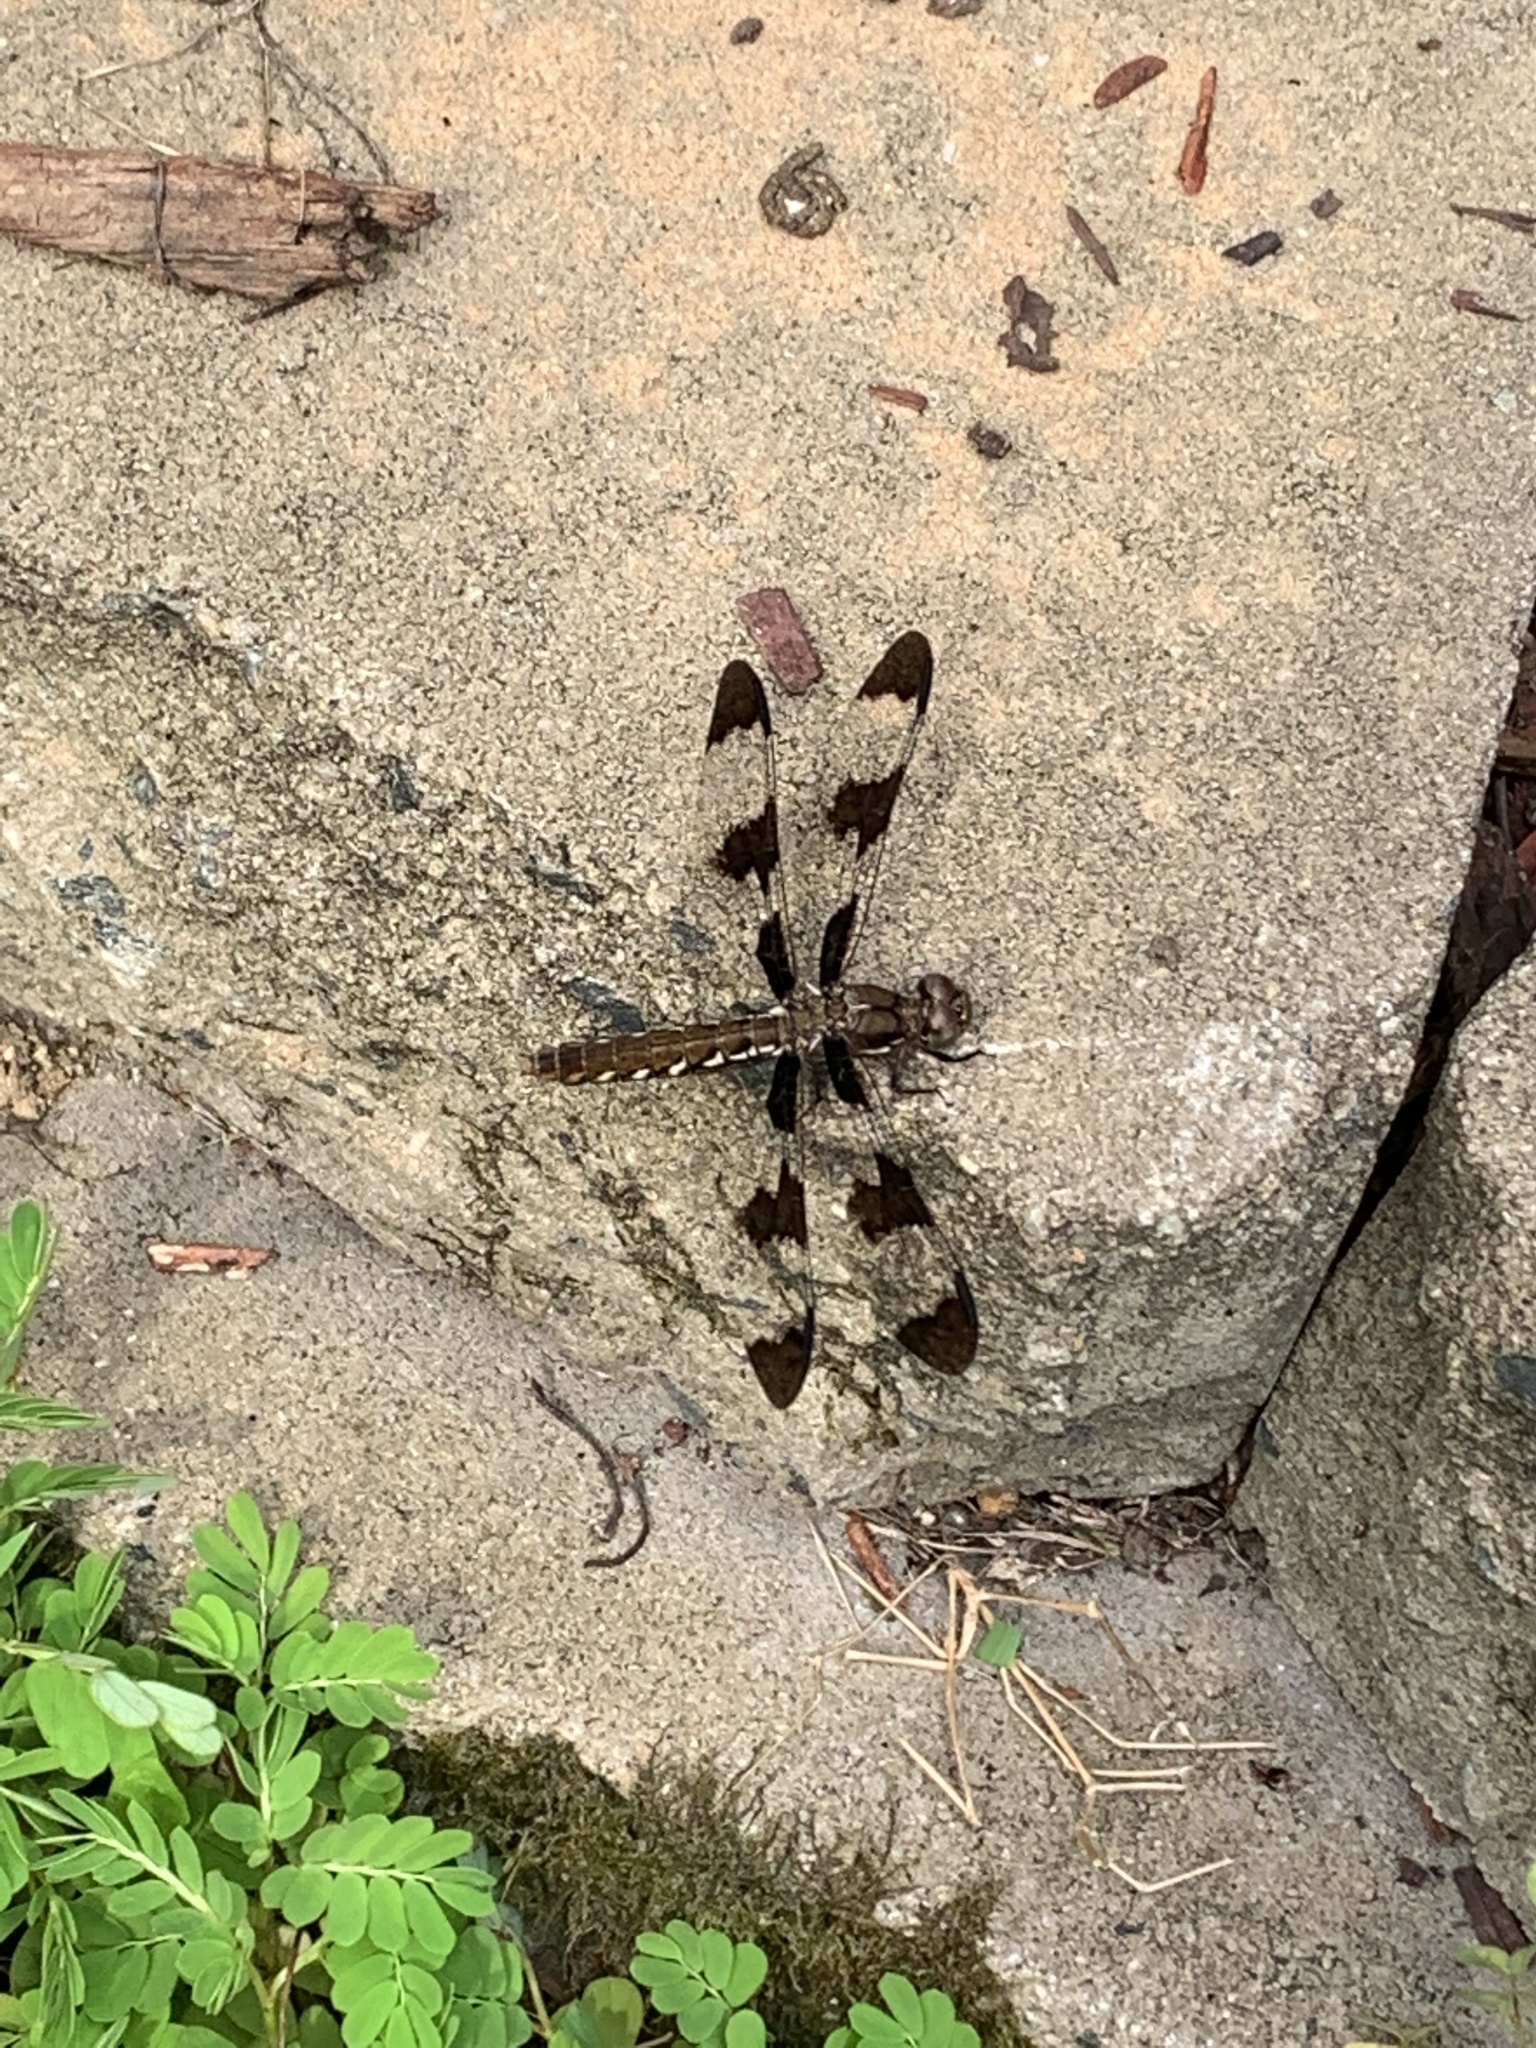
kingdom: Animalia
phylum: Arthropoda
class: Insecta
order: Odonata
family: Libellulidae
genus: Plathemis
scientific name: Plathemis lydia
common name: Common whitetail
